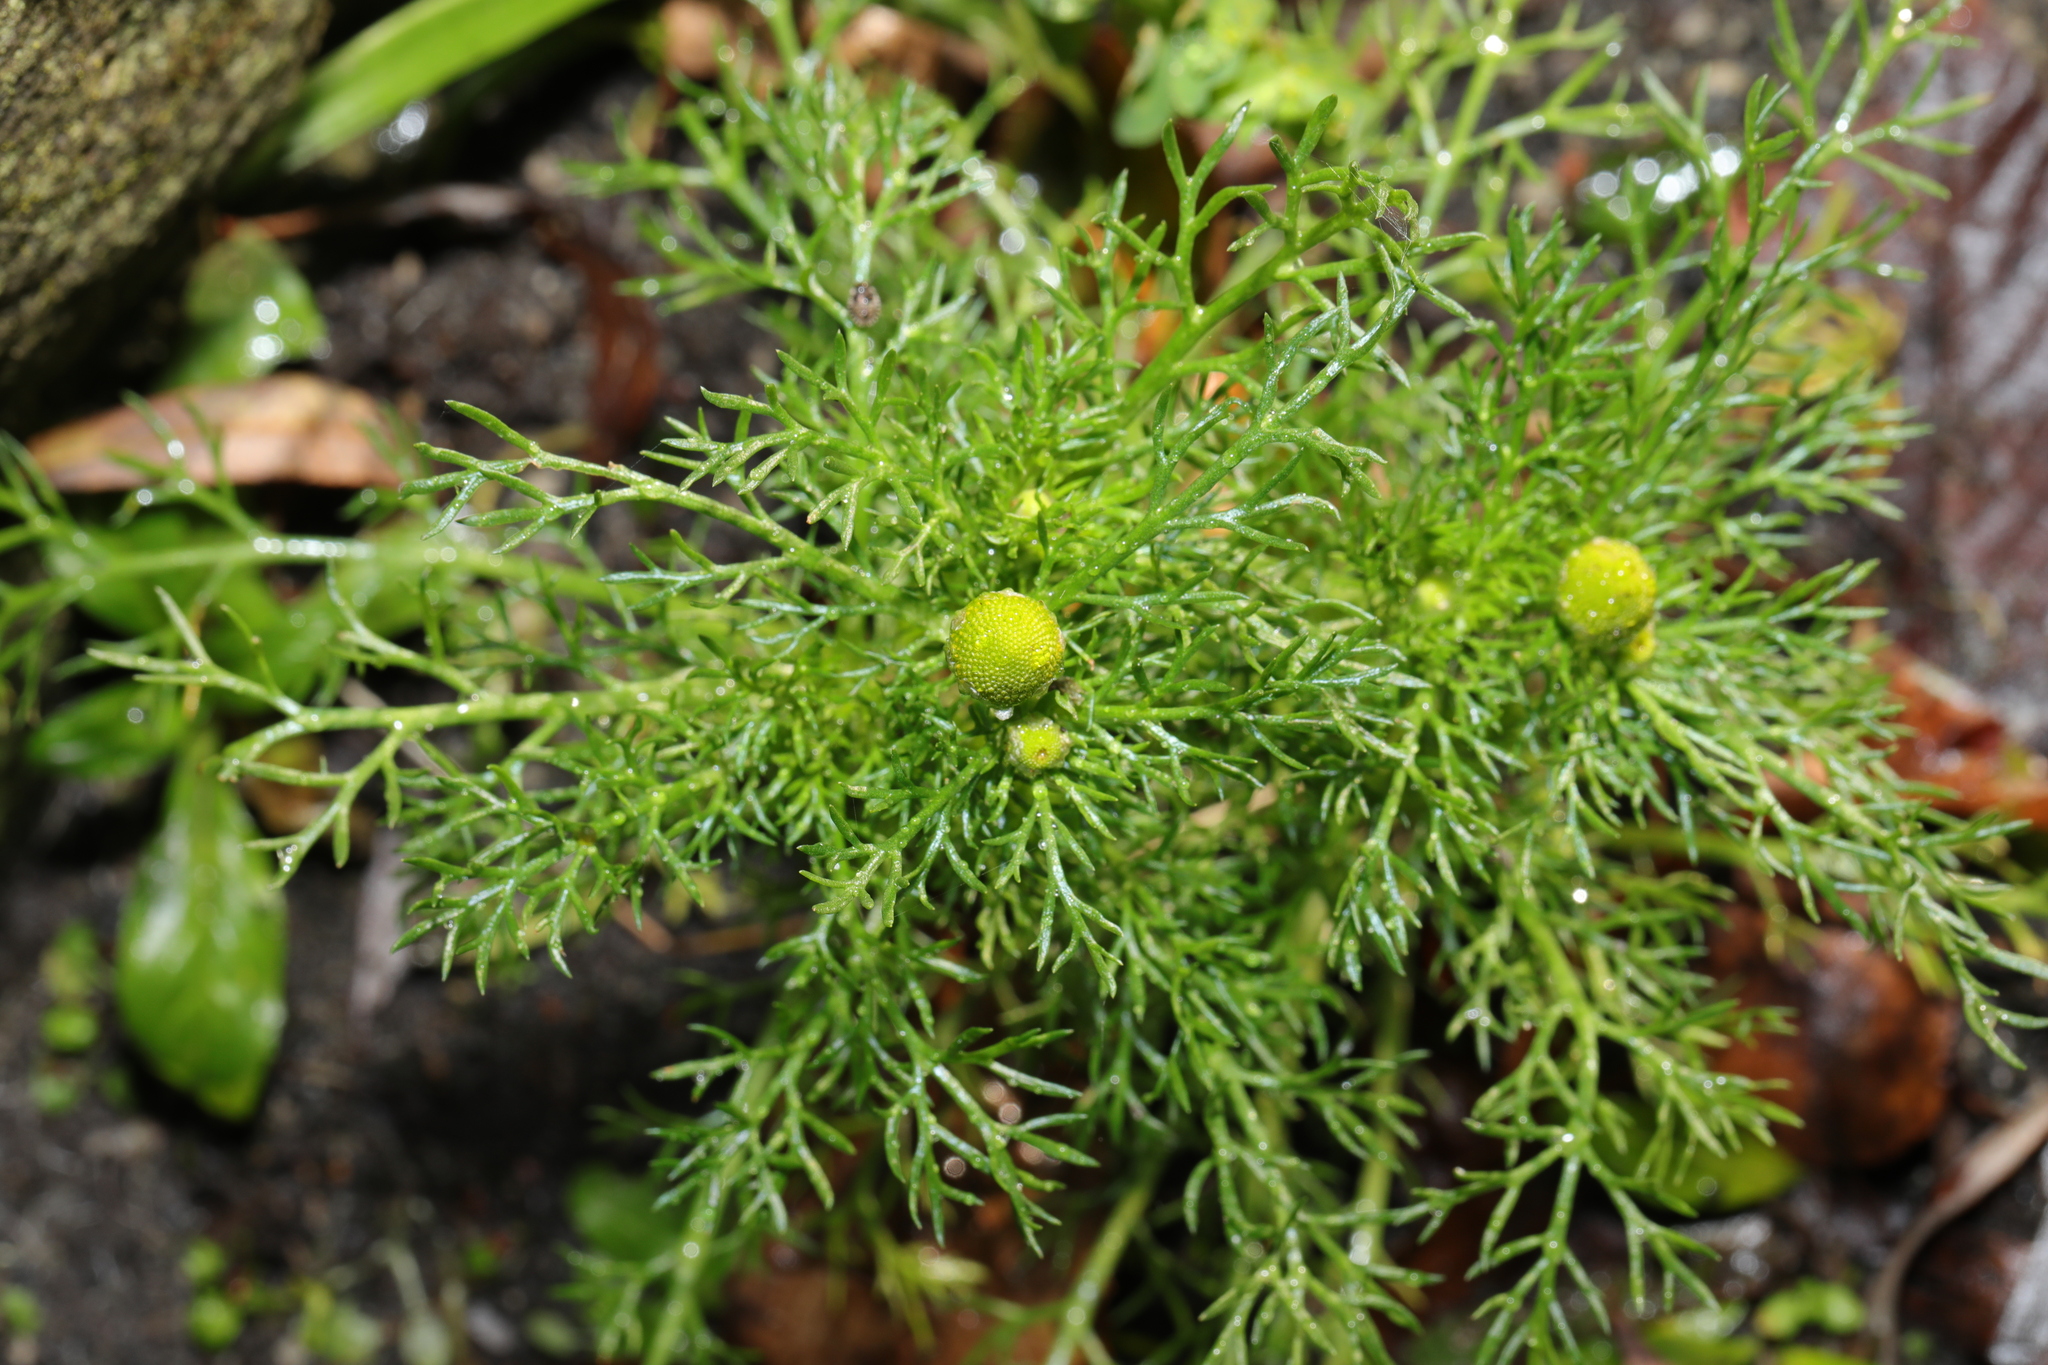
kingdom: Plantae
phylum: Tracheophyta
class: Magnoliopsida
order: Asterales
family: Asteraceae
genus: Matricaria
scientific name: Matricaria discoidea
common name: Disc mayweed
